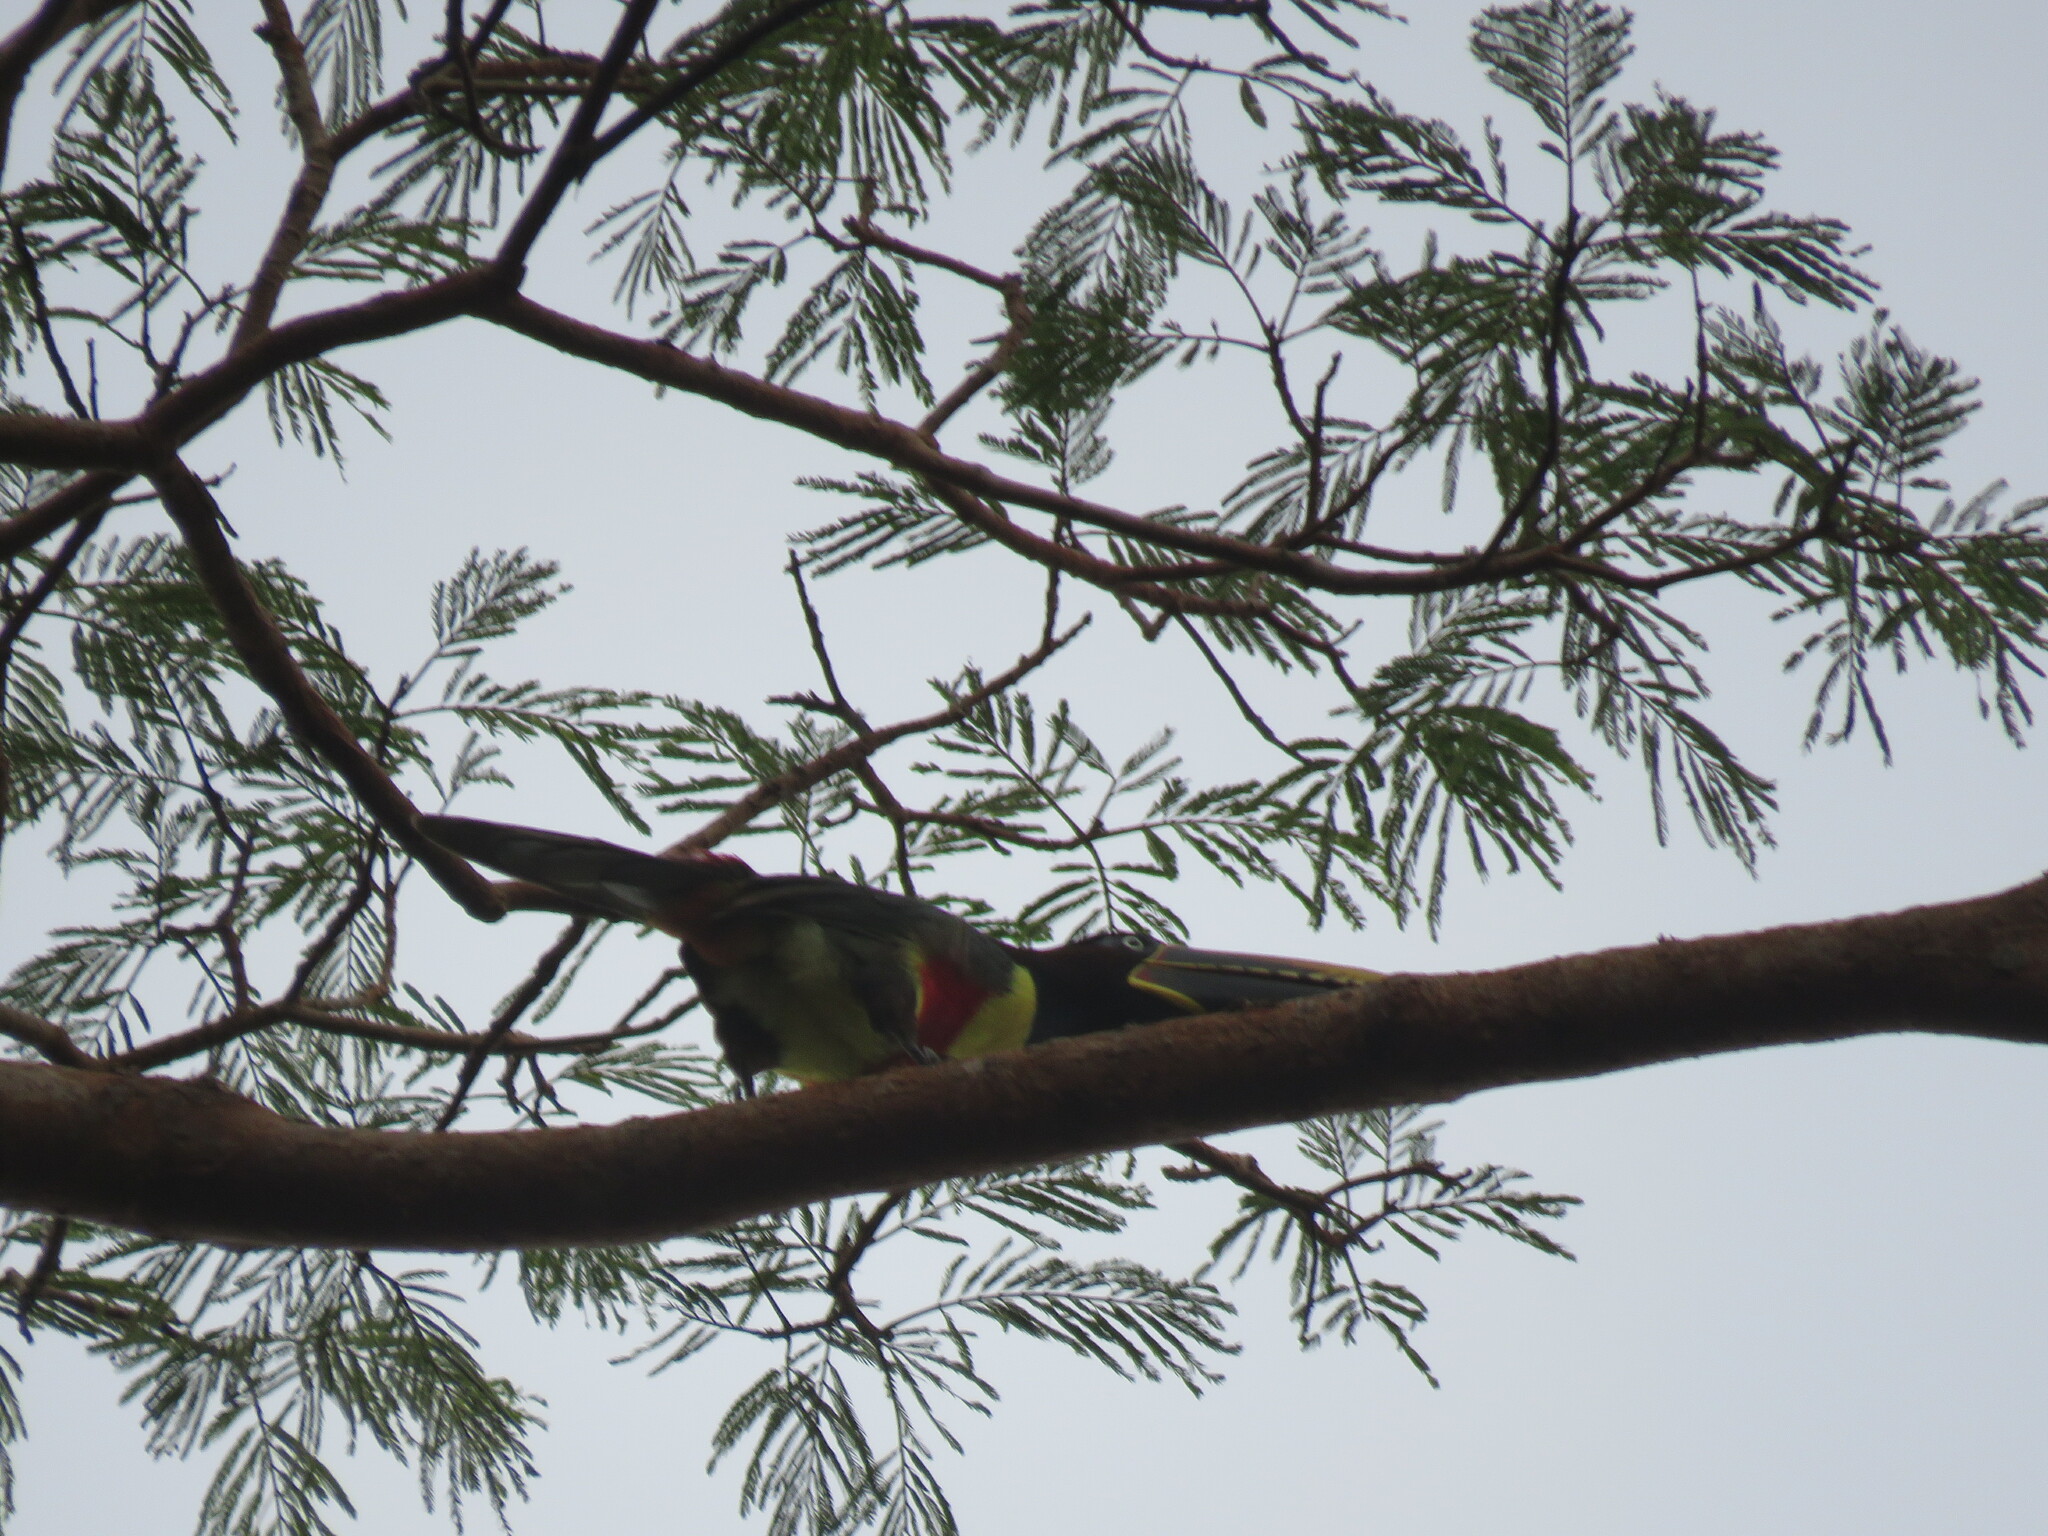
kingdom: Animalia
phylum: Chordata
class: Aves
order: Piciformes
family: Ramphastidae
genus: Pteroglossus
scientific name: Pteroglossus castanotis
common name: Chestnut-eared aracari
